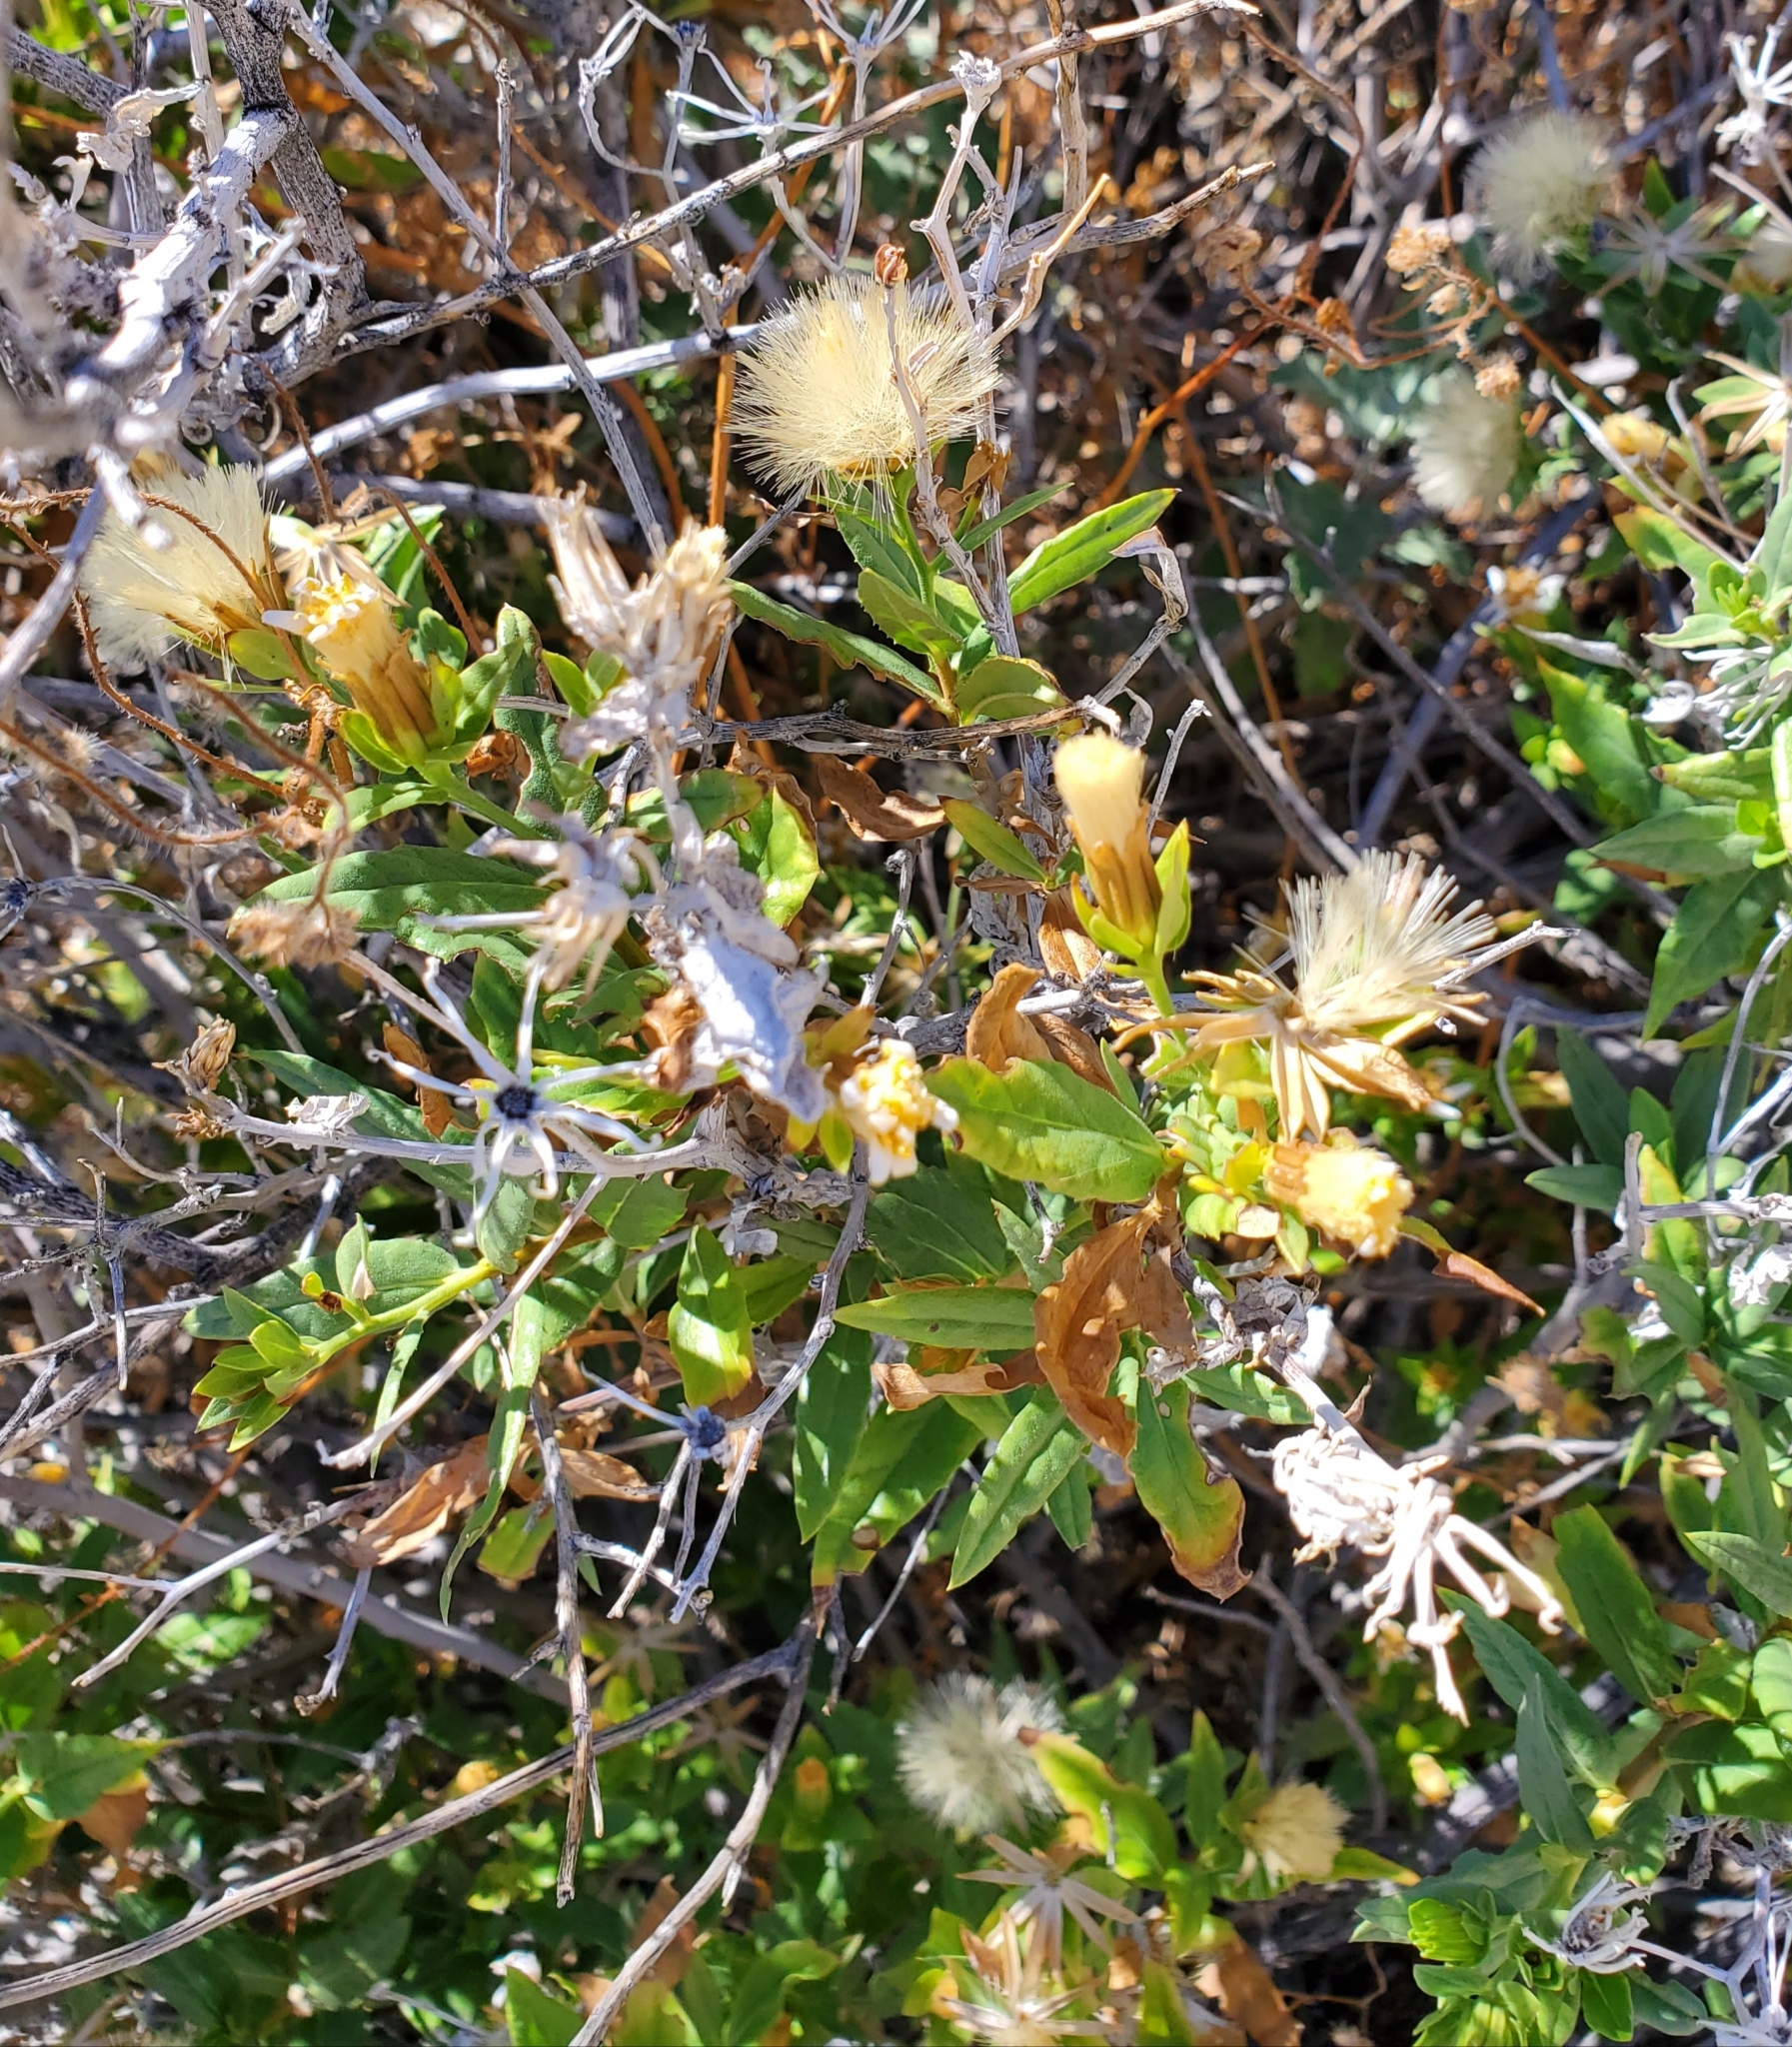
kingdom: Plantae
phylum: Tracheophyta
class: Magnoliopsida
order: Asterales
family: Asteraceae
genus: Trixis
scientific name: Trixis californica
